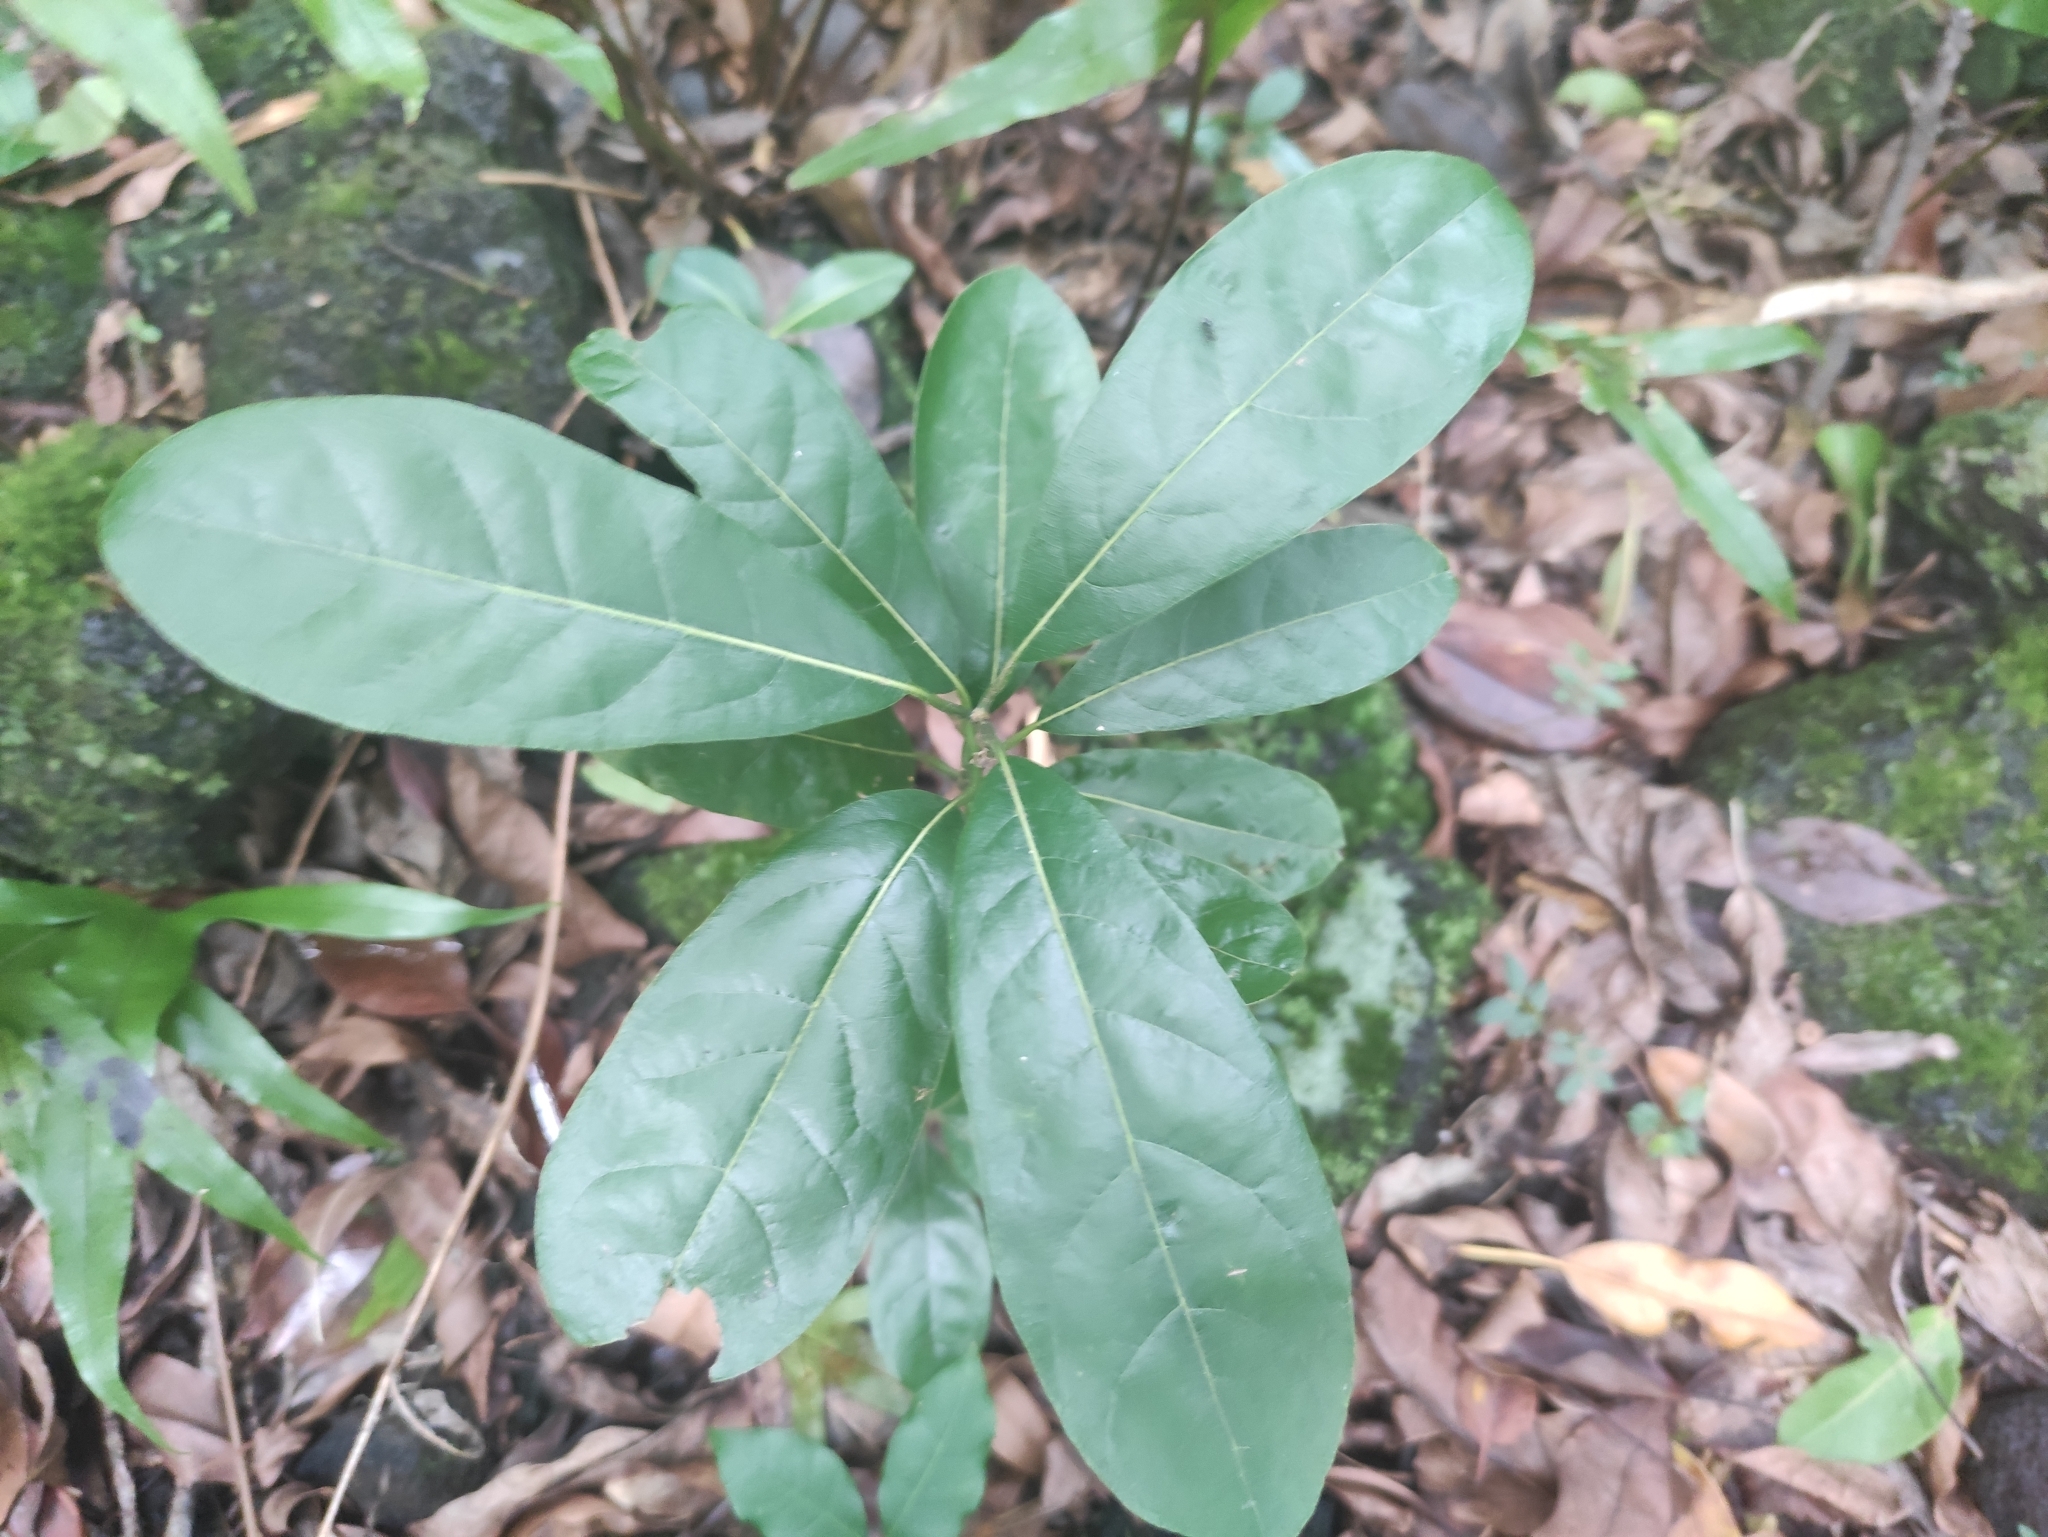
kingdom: Plantae
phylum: Tracheophyta
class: Magnoliopsida
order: Laurales
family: Lauraceae
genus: Litsea
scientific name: Litsea glutinosa
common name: Indian-laurel
